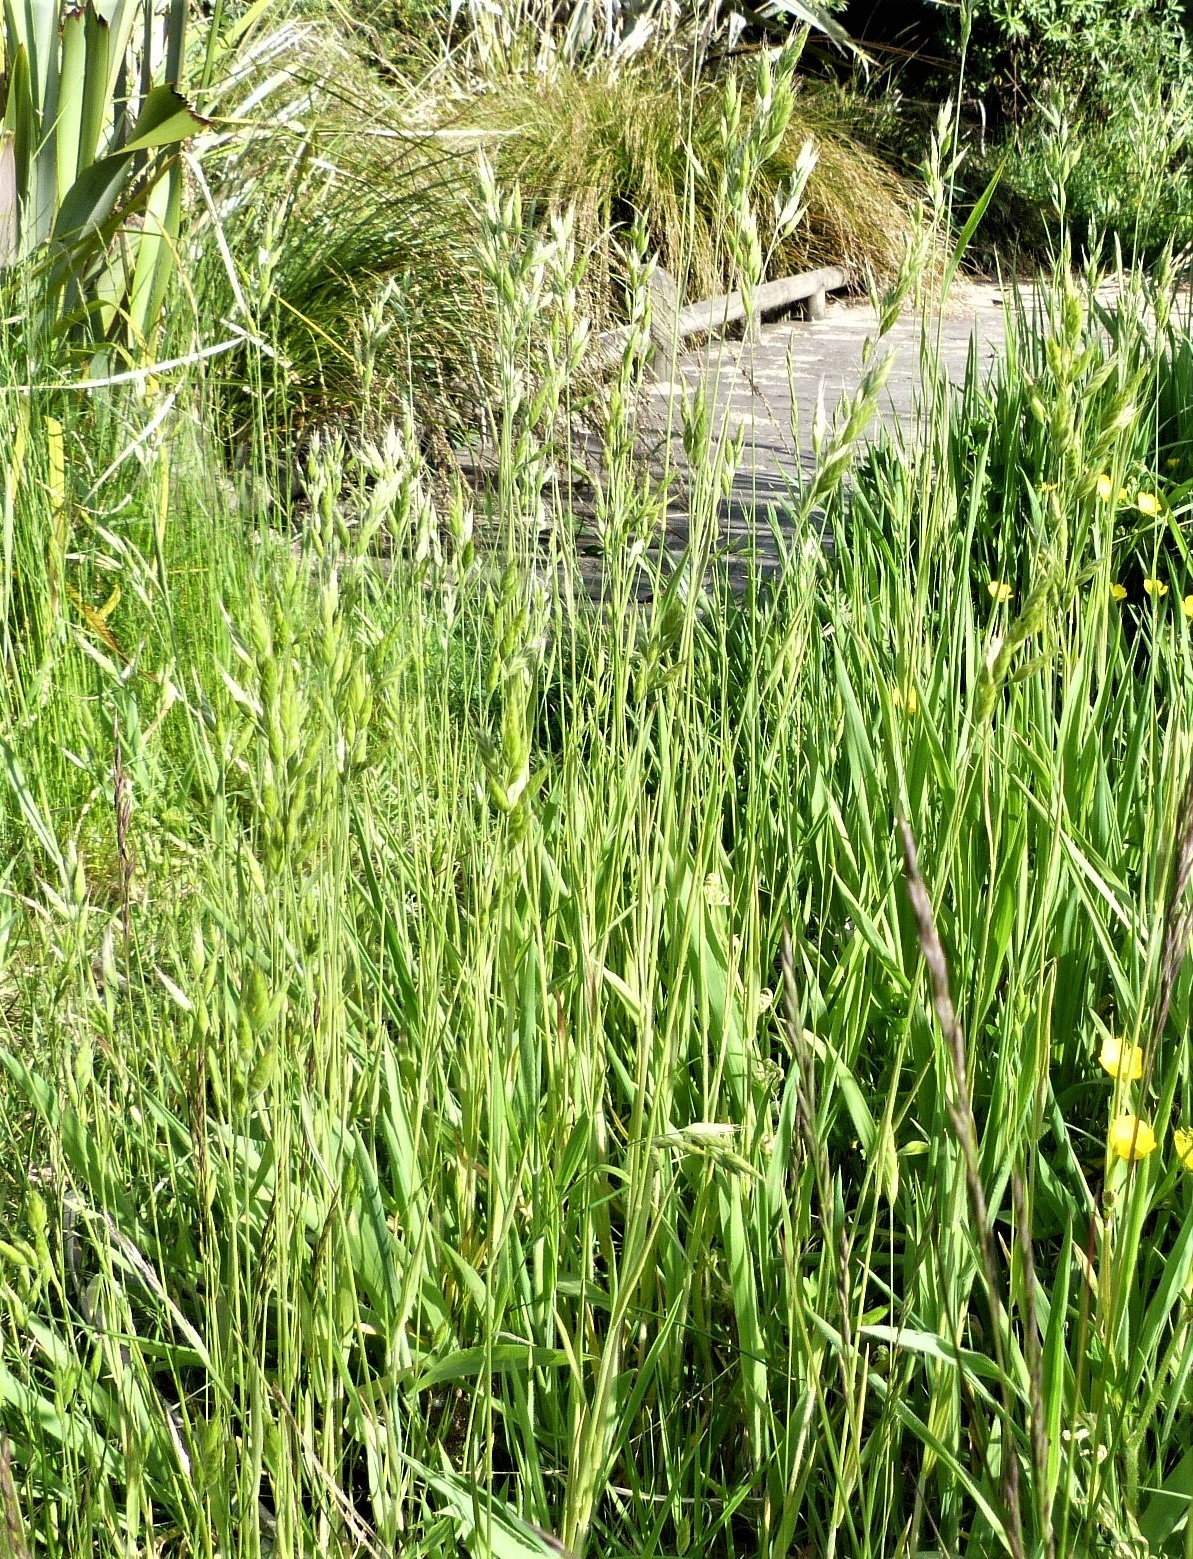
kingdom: Plantae
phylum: Tracheophyta
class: Liliopsida
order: Poales
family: Poaceae
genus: Bromus
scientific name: Bromus hordeaceus
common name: Soft brome
